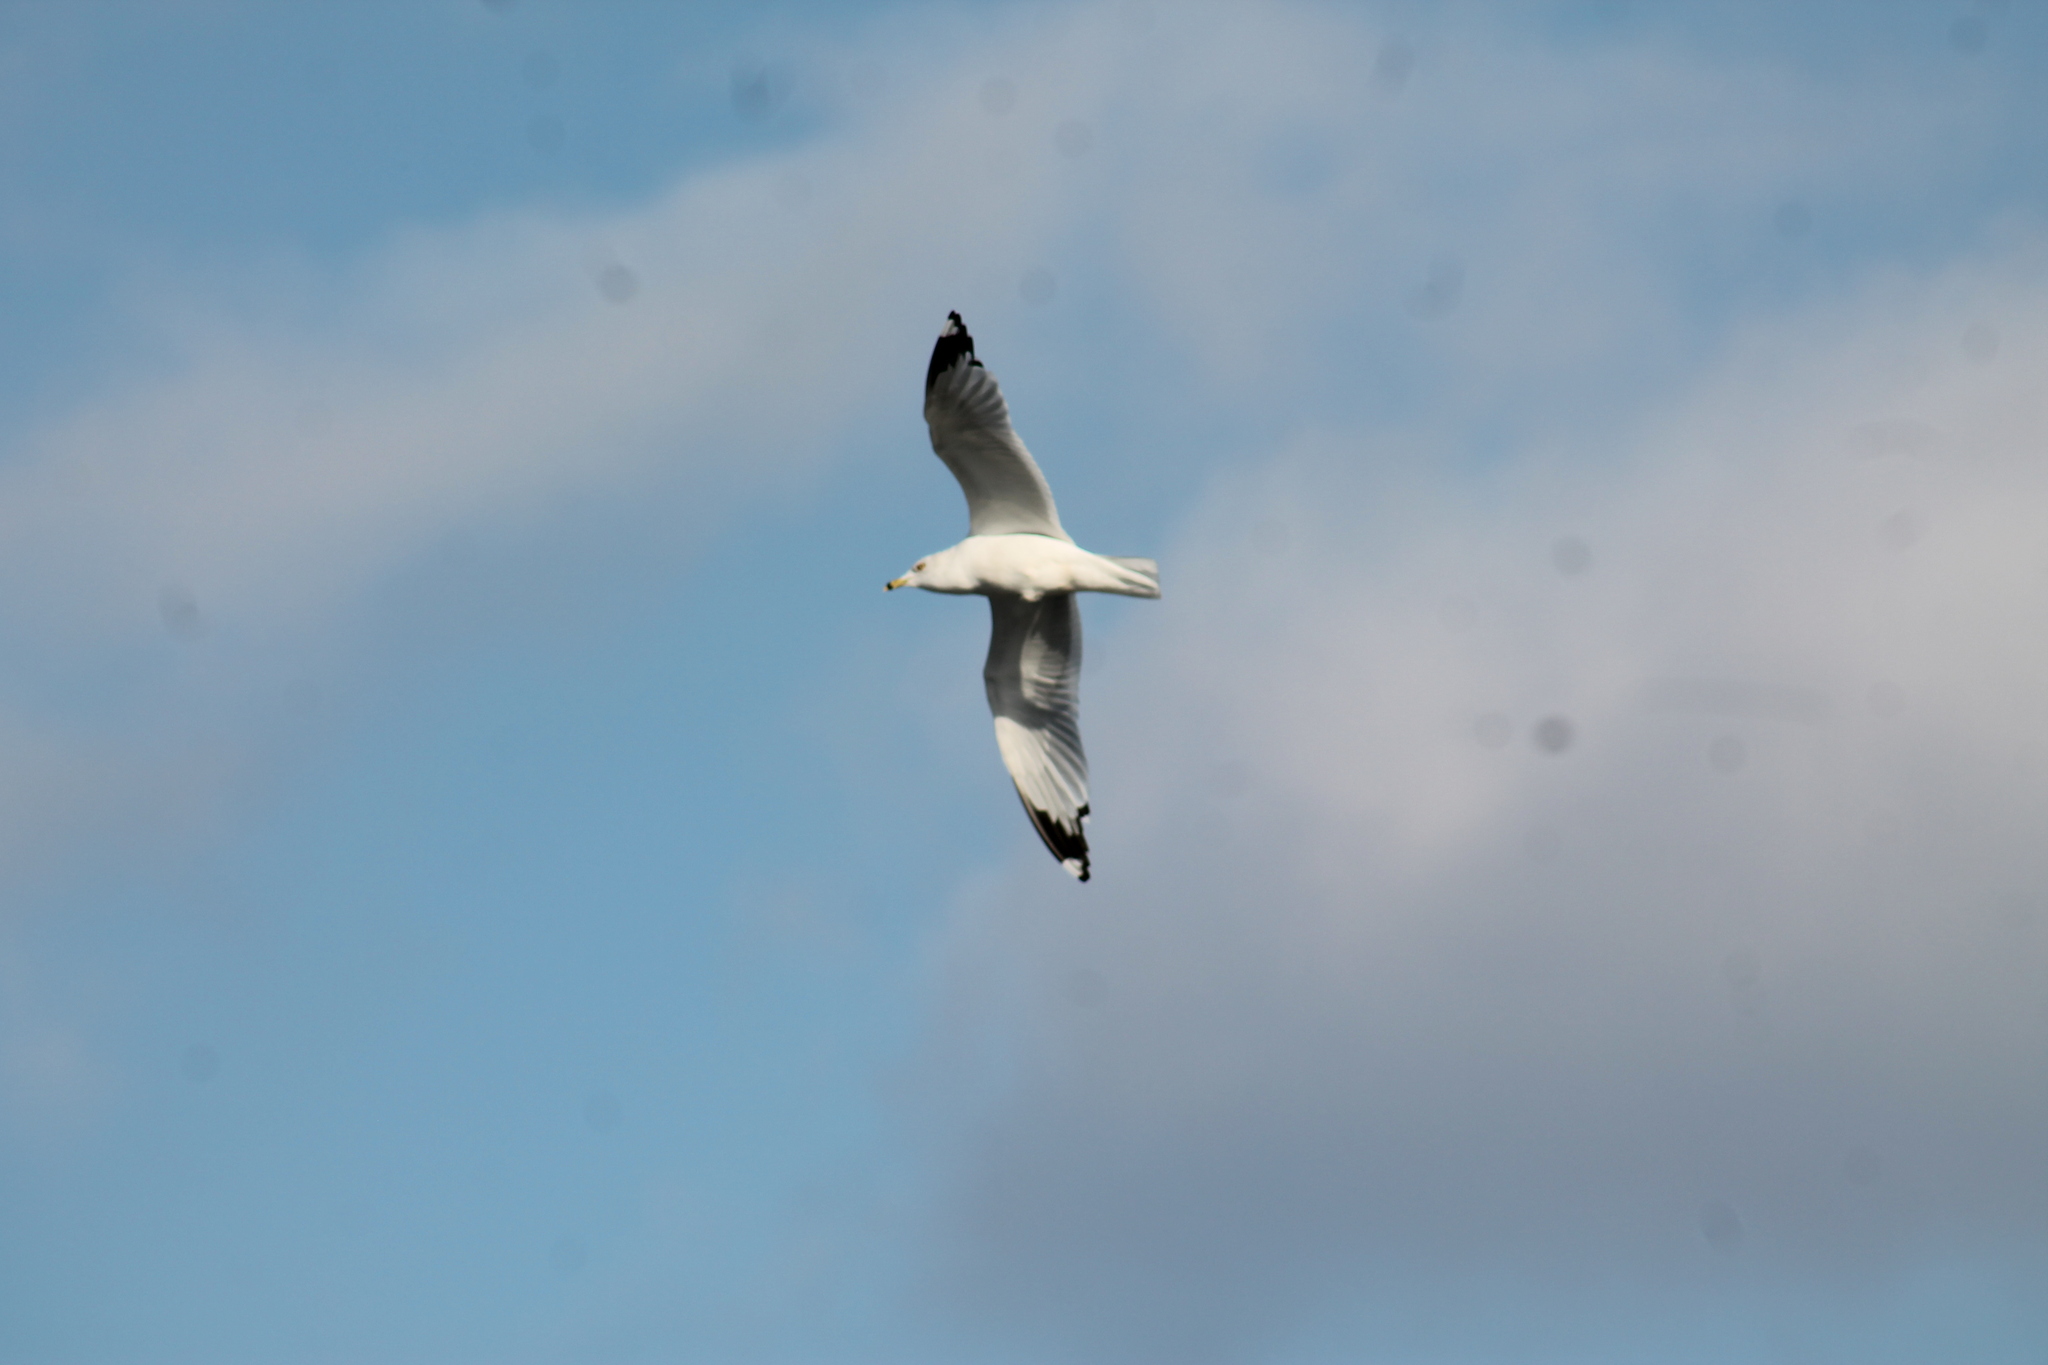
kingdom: Animalia
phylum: Chordata
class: Aves
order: Charadriiformes
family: Laridae
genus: Larus
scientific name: Larus delawarensis
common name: Ring-billed gull
